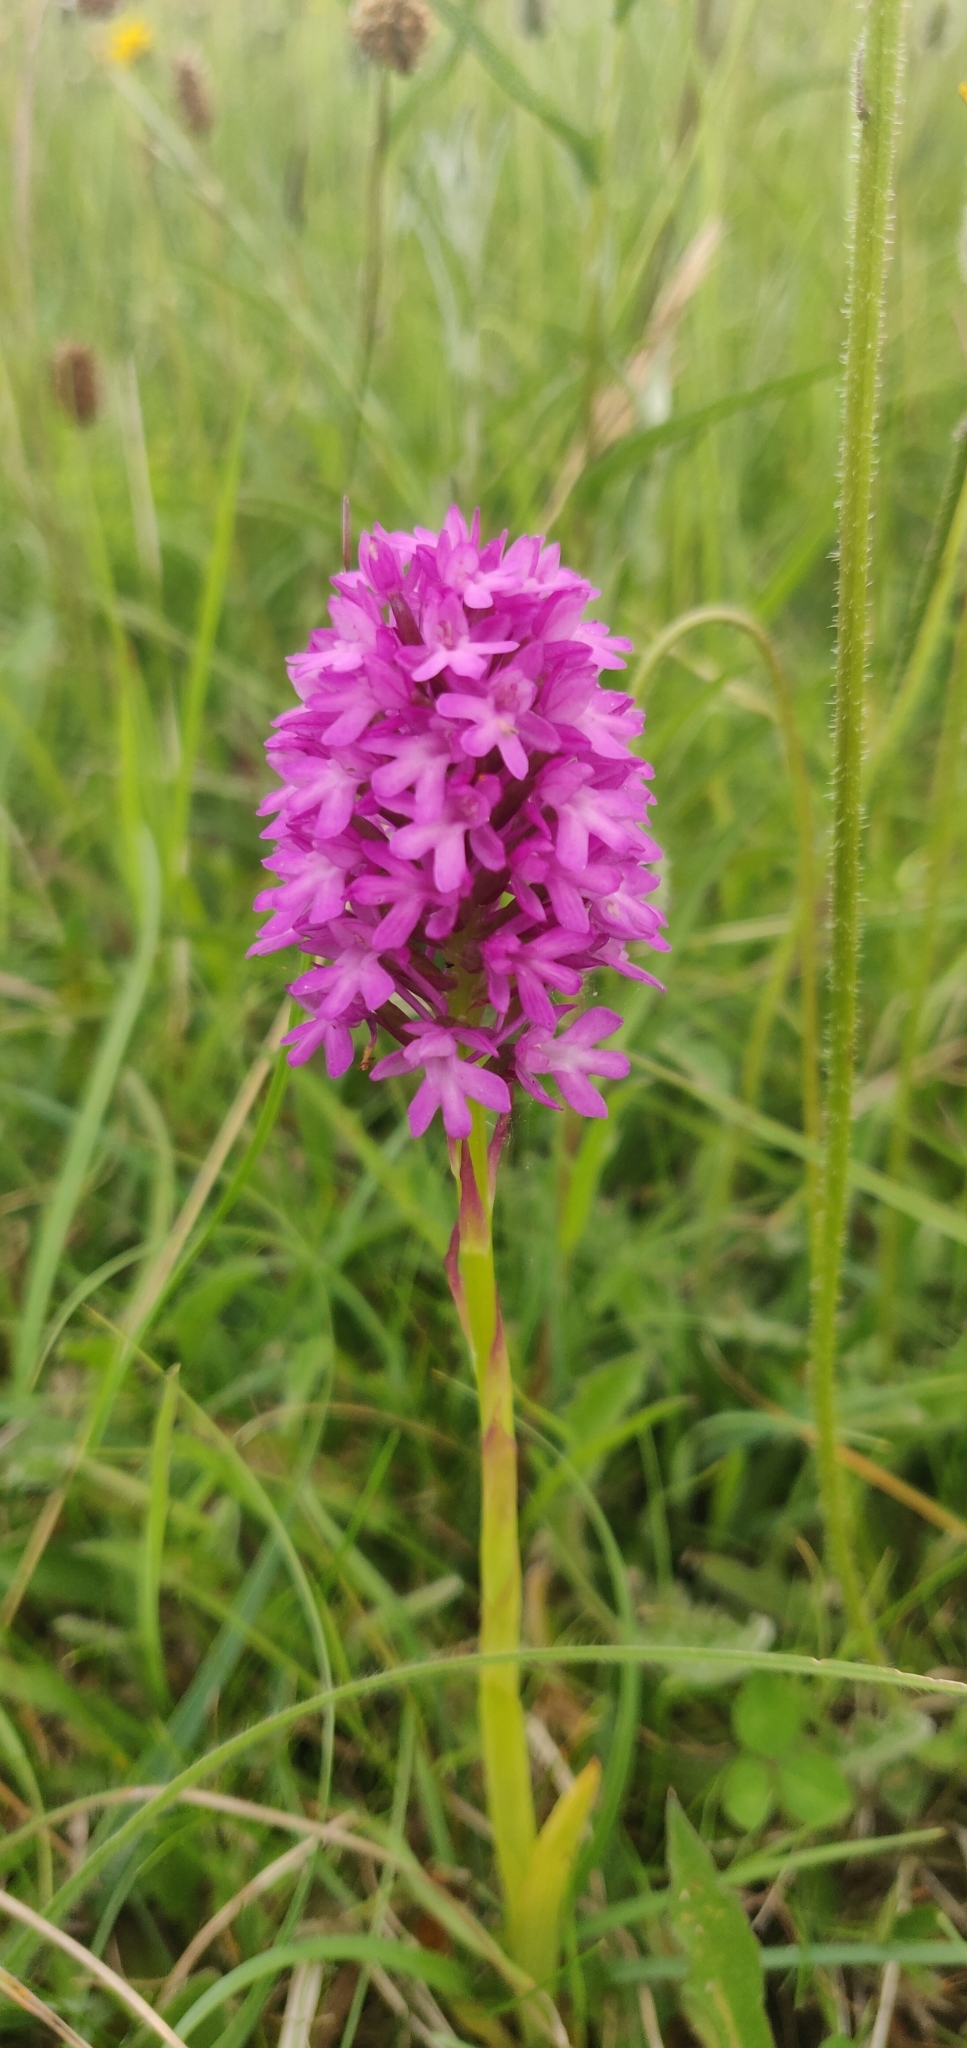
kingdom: Plantae
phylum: Tracheophyta
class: Liliopsida
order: Asparagales
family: Orchidaceae
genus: Anacamptis
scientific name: Anacamptis pyramidalis
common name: Pyramidal orchid
